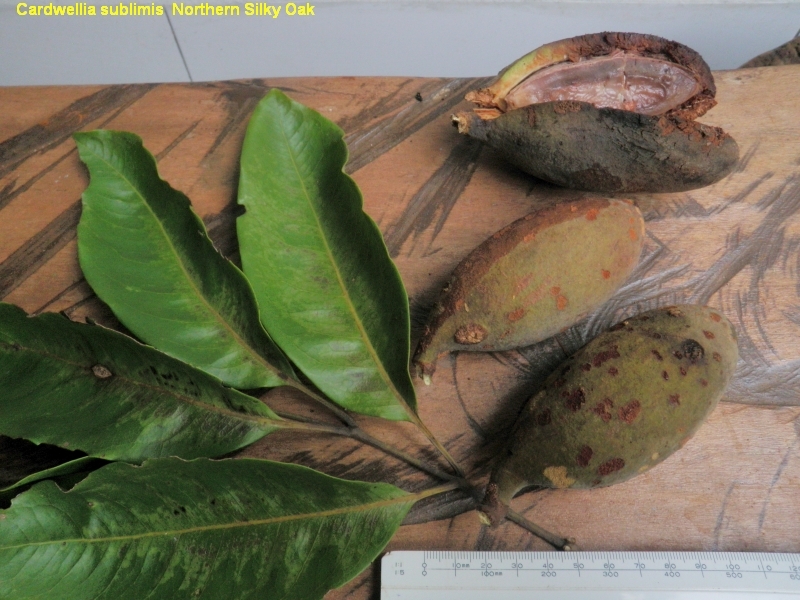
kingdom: Plantae
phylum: Tracheophyta
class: Magnoliopsida
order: Proteales
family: Proteaceae
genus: Cardwellia
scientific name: Cardwellia sublimis
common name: Bull oak
